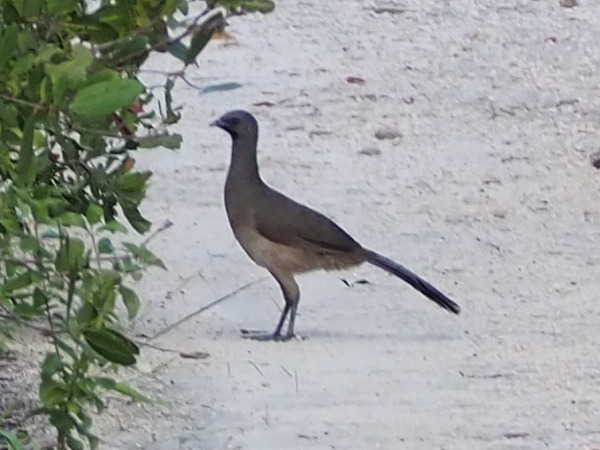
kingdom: Animalia
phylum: Chordata
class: Aves
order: Galliformes
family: Cracidae
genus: Ortalis
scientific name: Ortalis vetula
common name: Plain chachalaca
